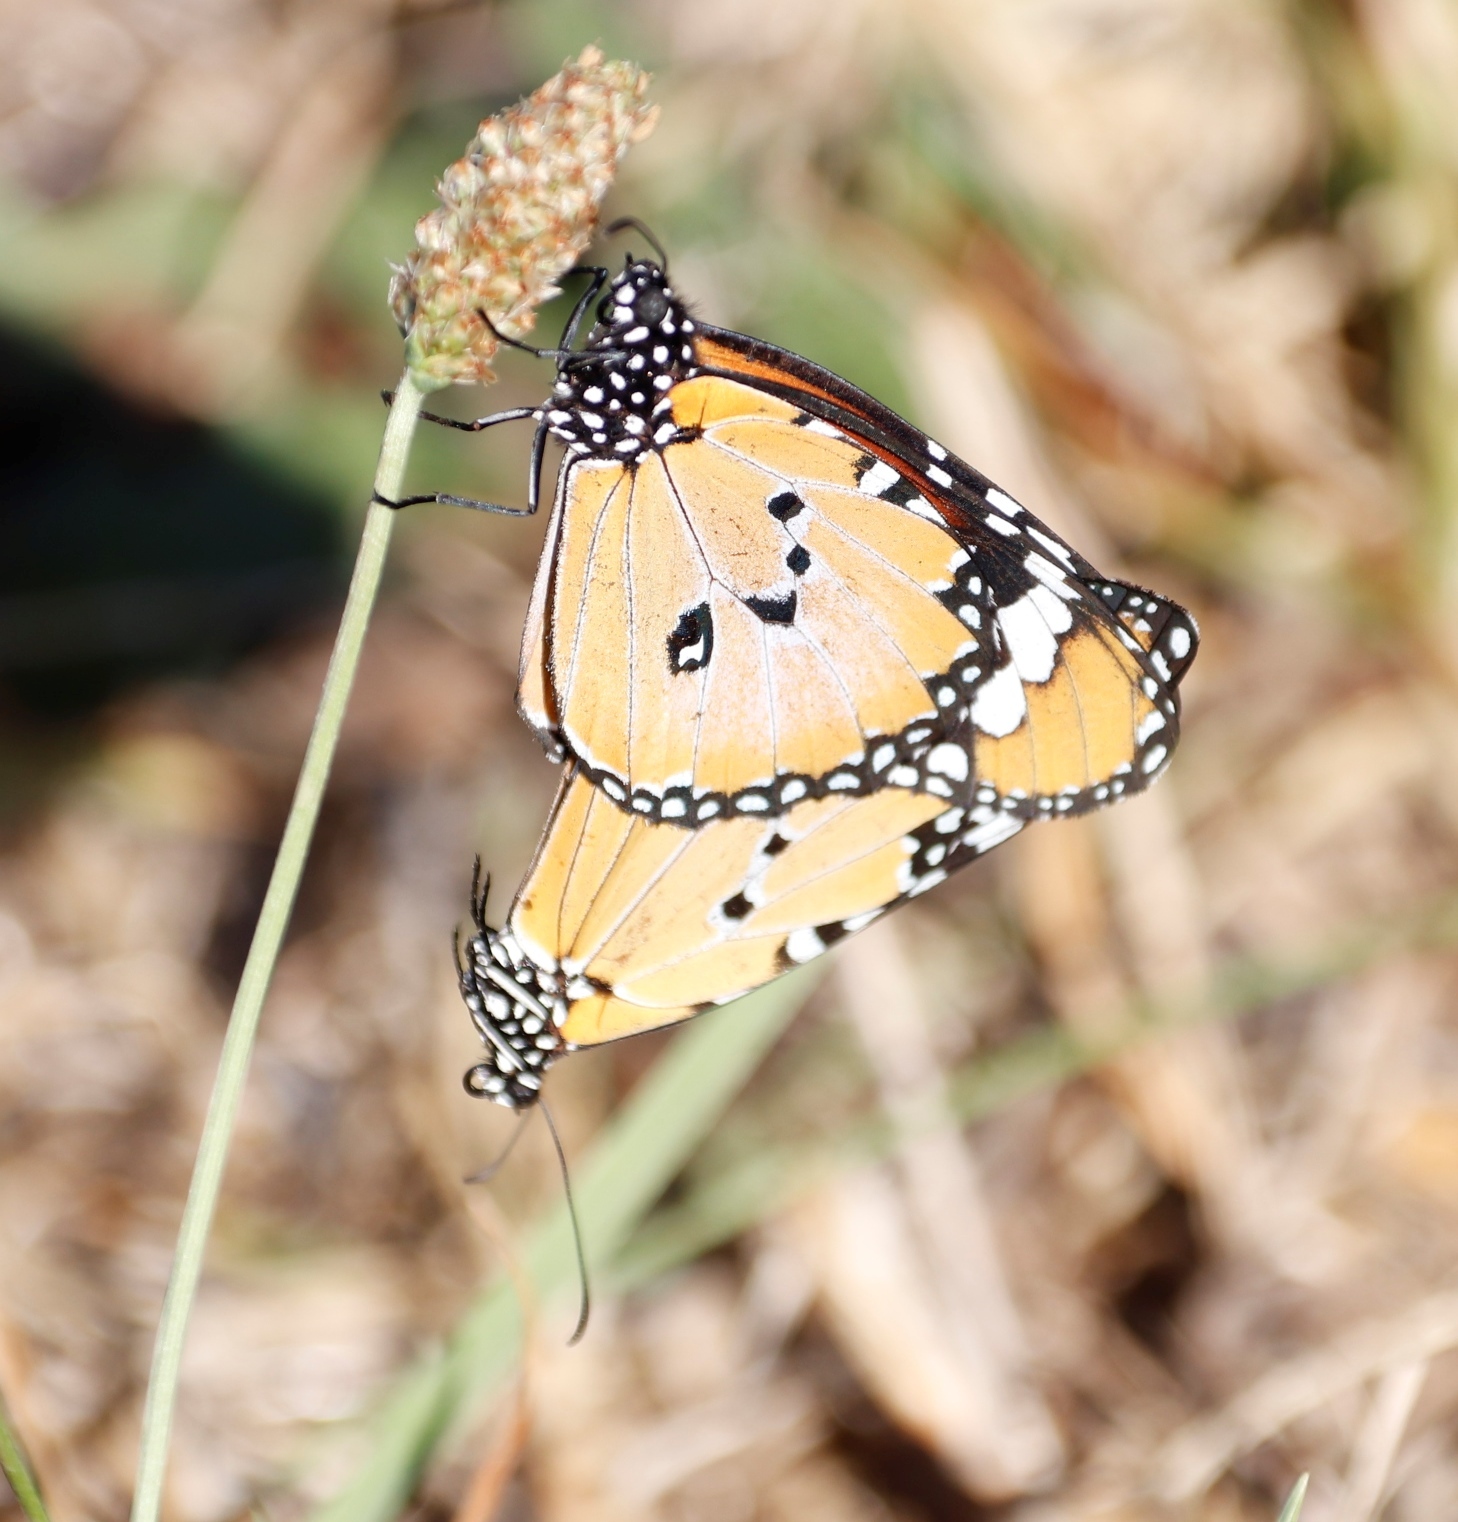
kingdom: Animalia
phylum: Arthropoda
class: Insecta
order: Lepidoptera
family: Nymphalidae
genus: Danaus
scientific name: Danaus chrysippus
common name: Plain tiger
